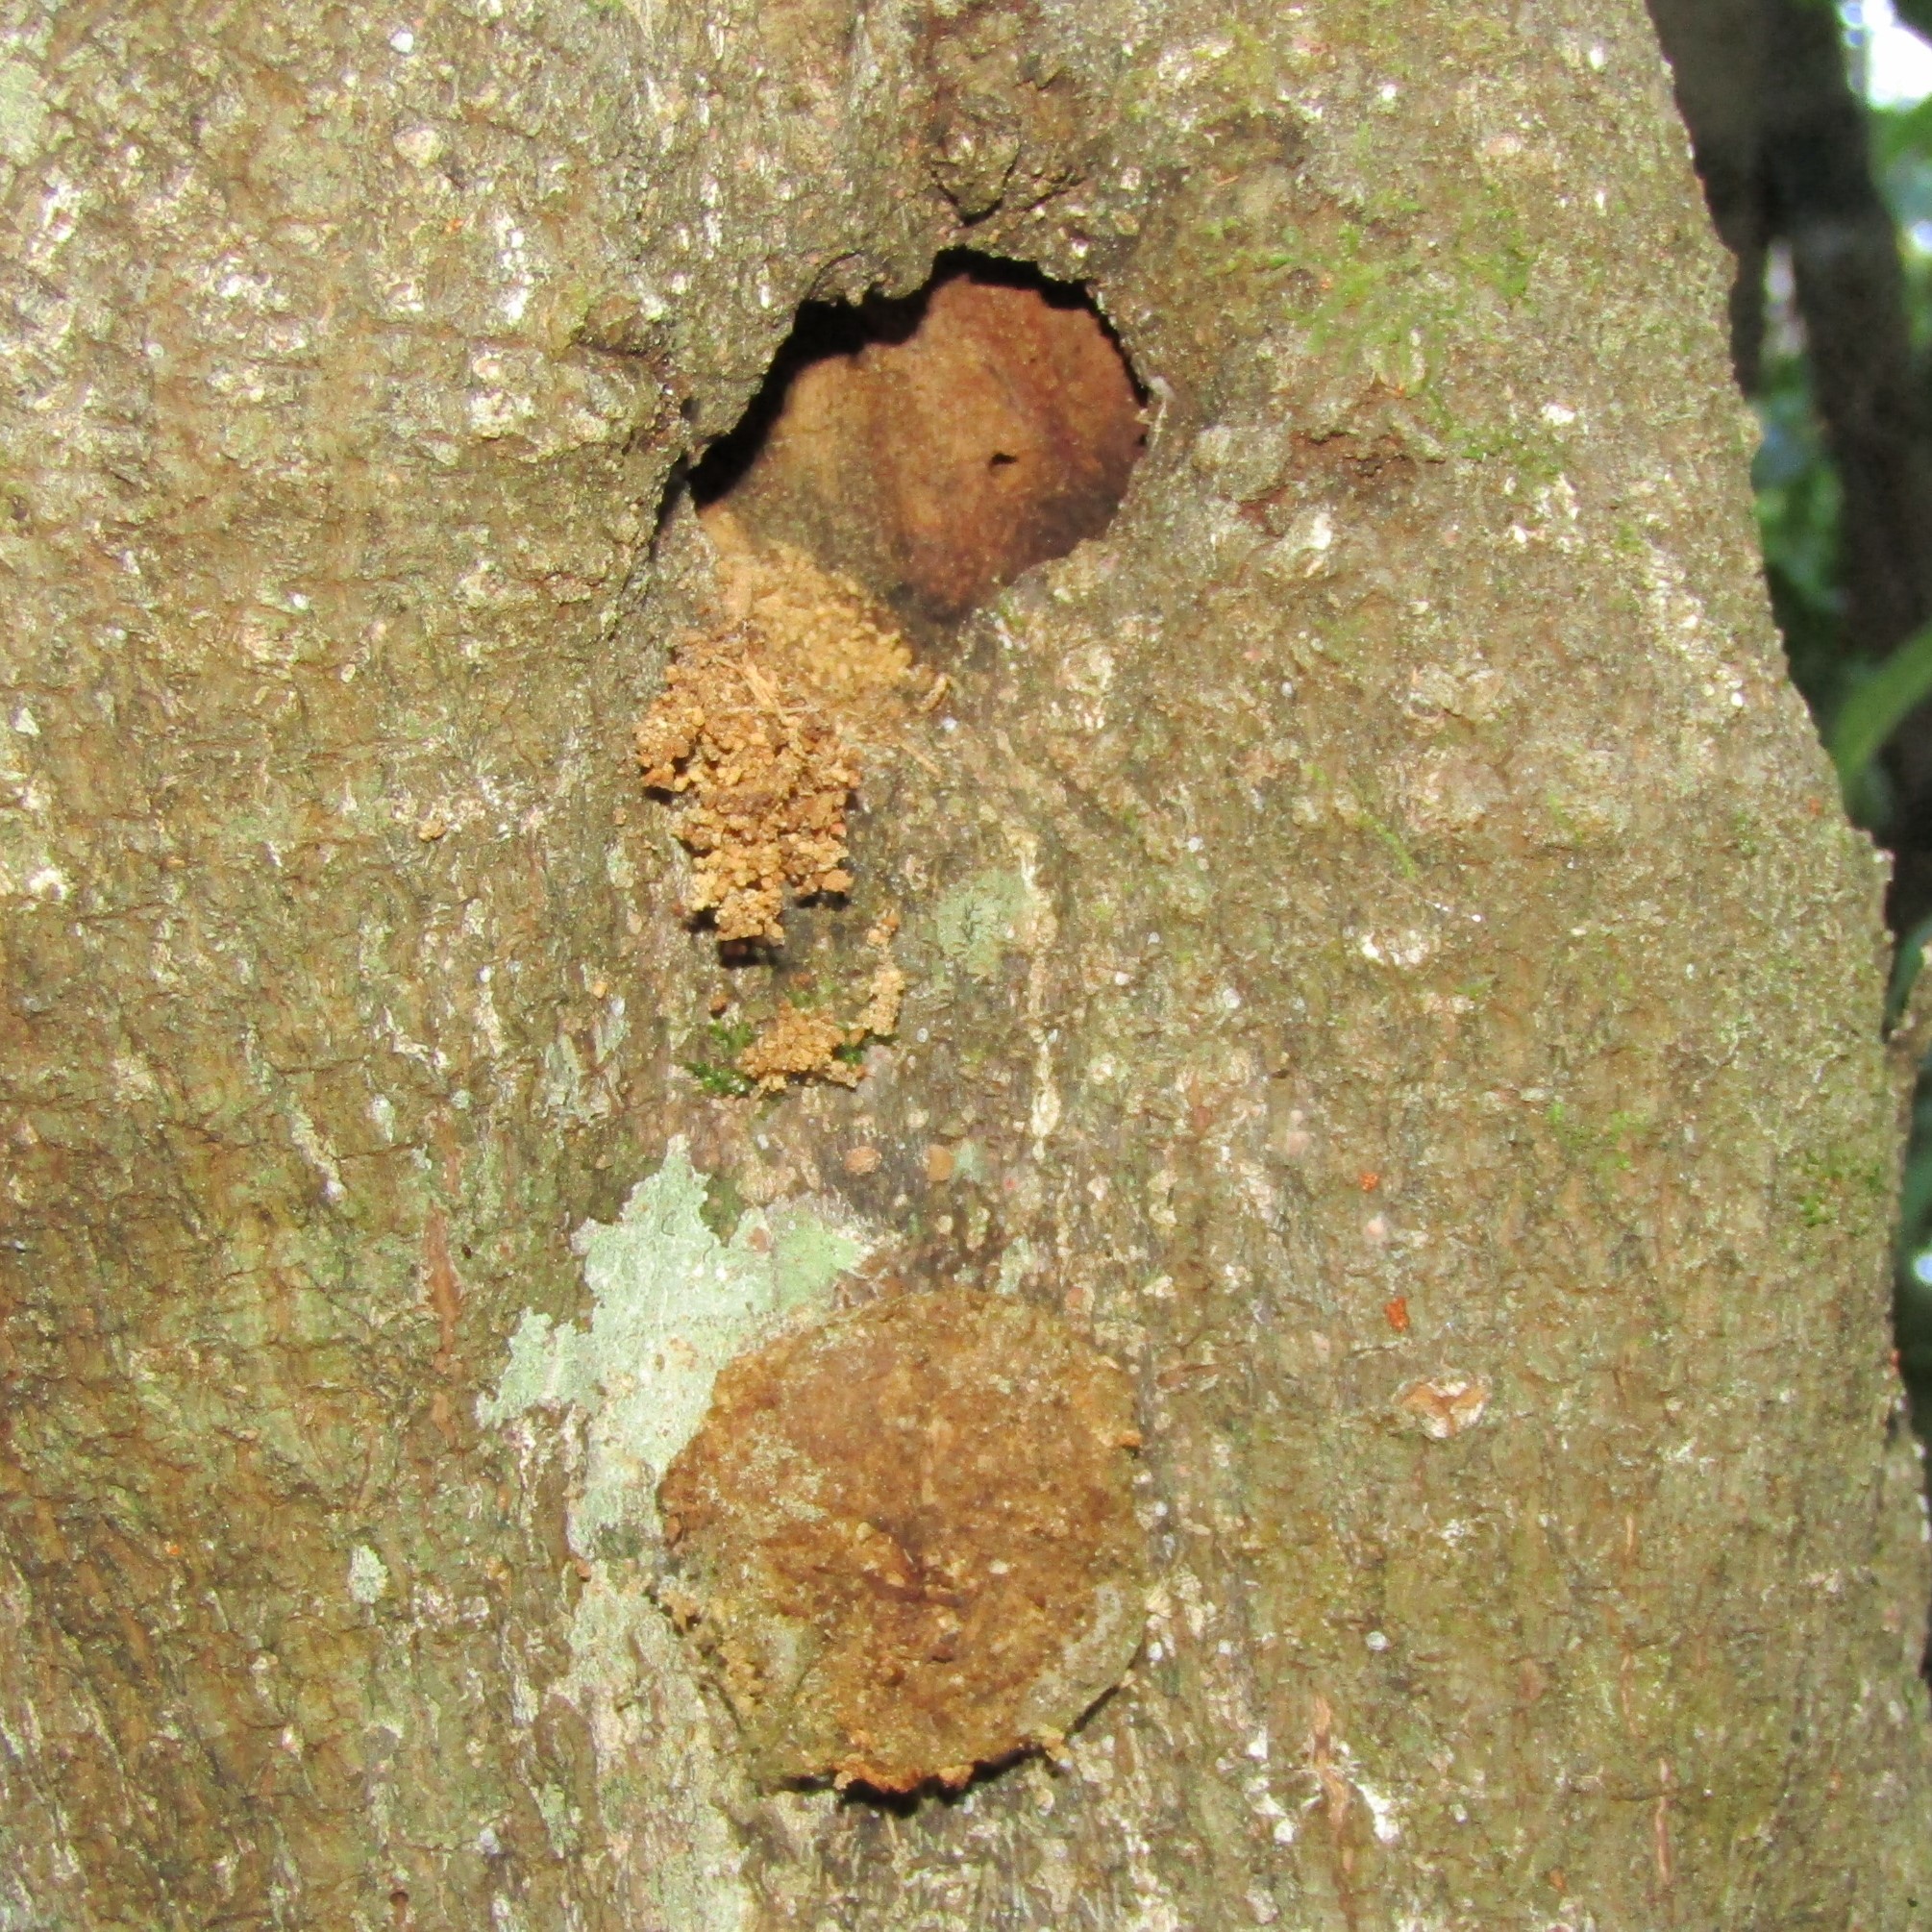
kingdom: Animalia
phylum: Arthropoda
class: Insecta
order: Lepidoptera
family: Hepialidae
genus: Aenetus
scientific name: Aenetus virescens
